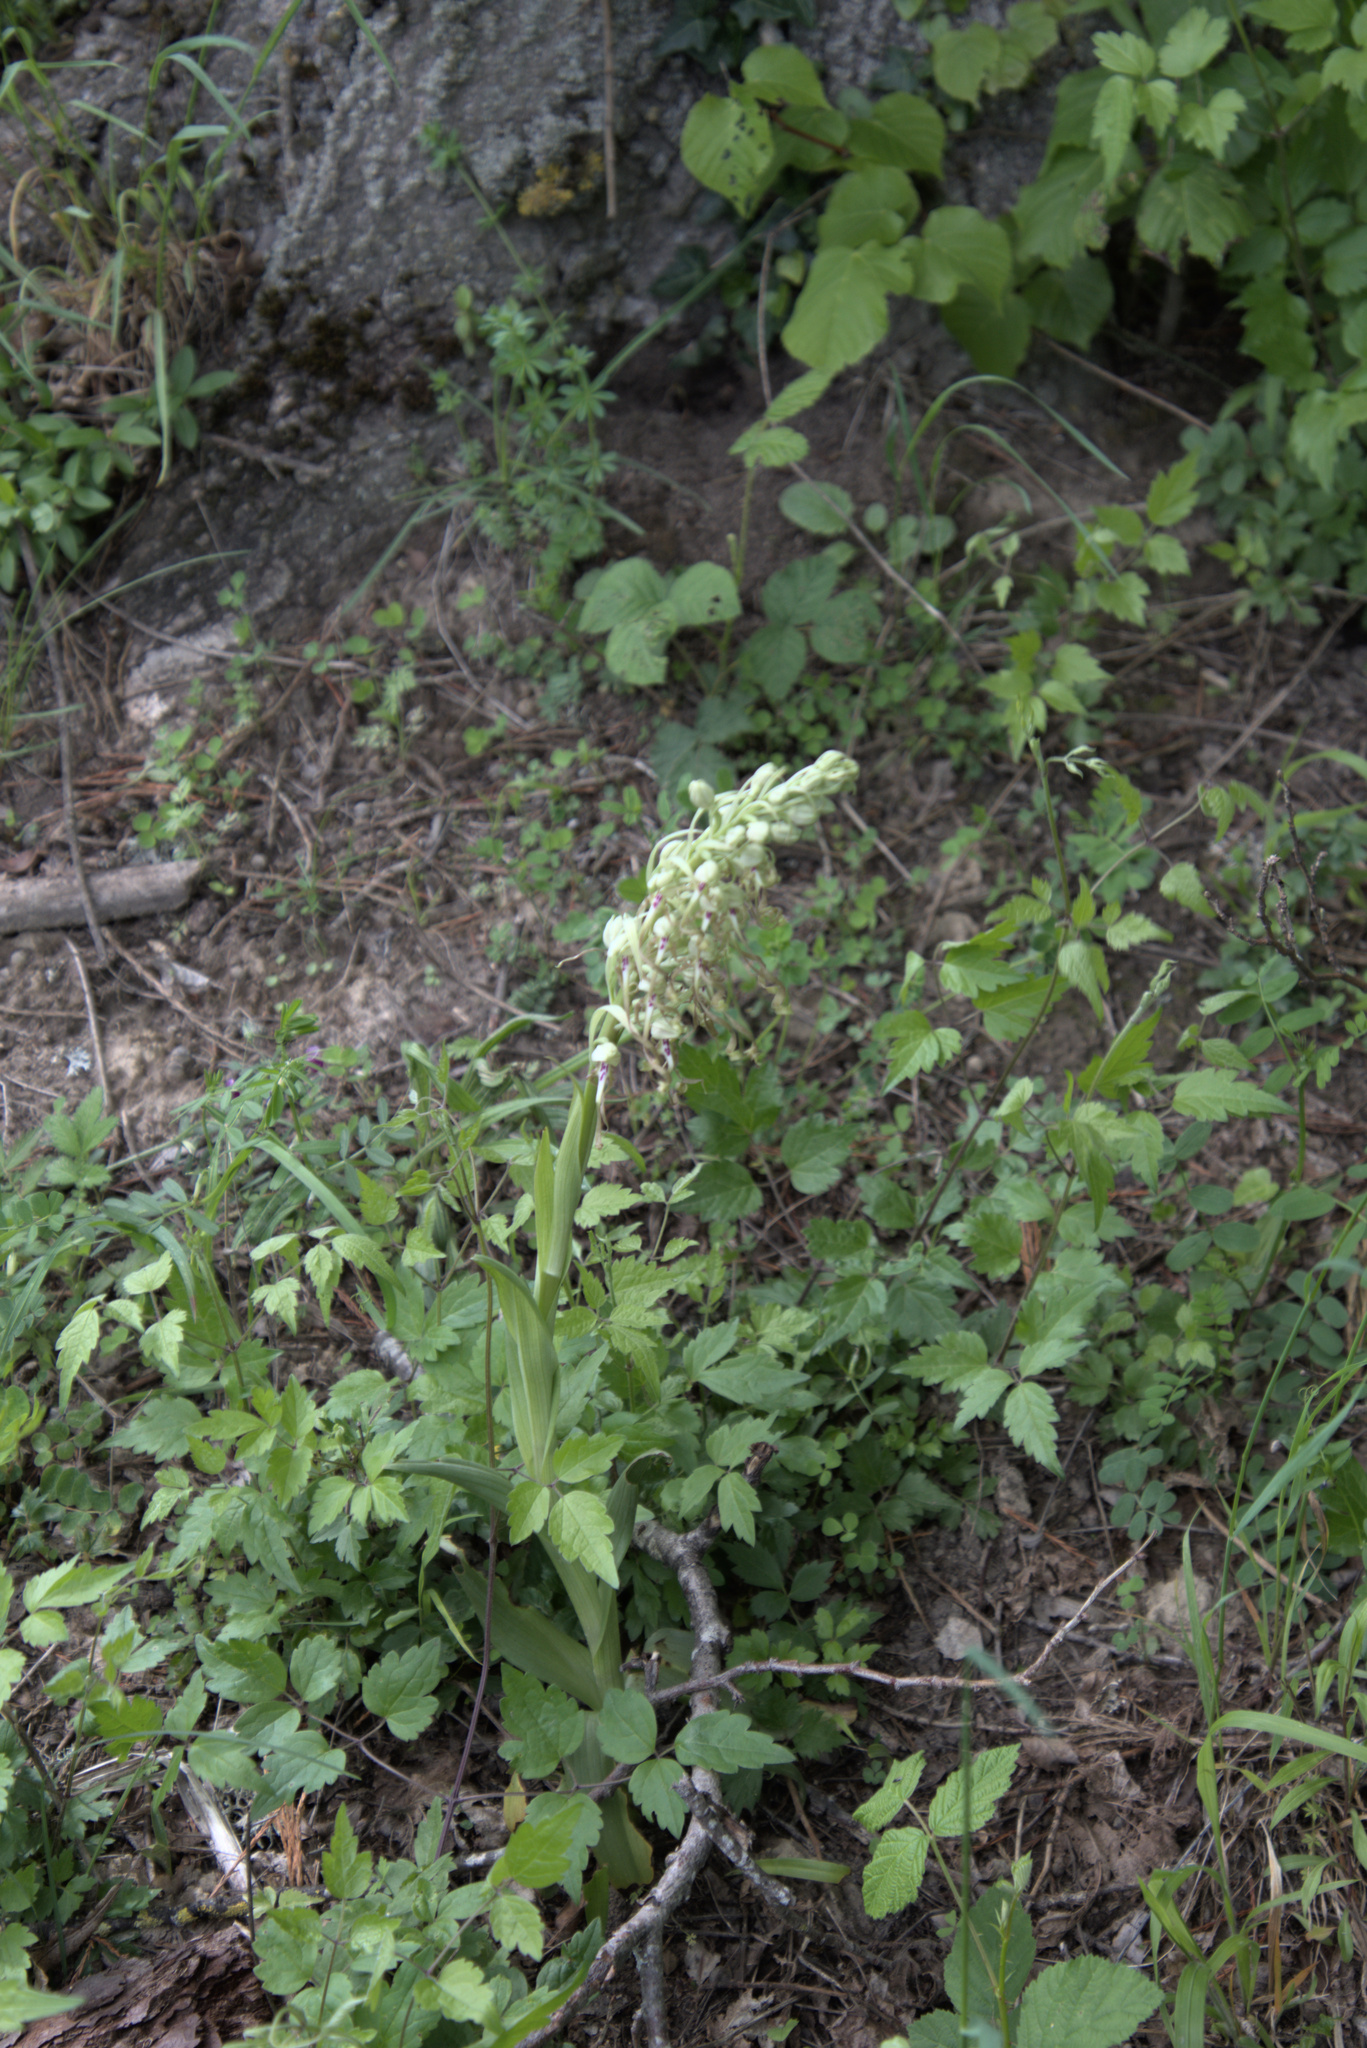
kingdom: Plantae
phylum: Tracheophyta
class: Liliopsida
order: Asparagales
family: Orchidaceae
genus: Himantoglossum
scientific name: Himantoglossum hircinum
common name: Lizard orchid
